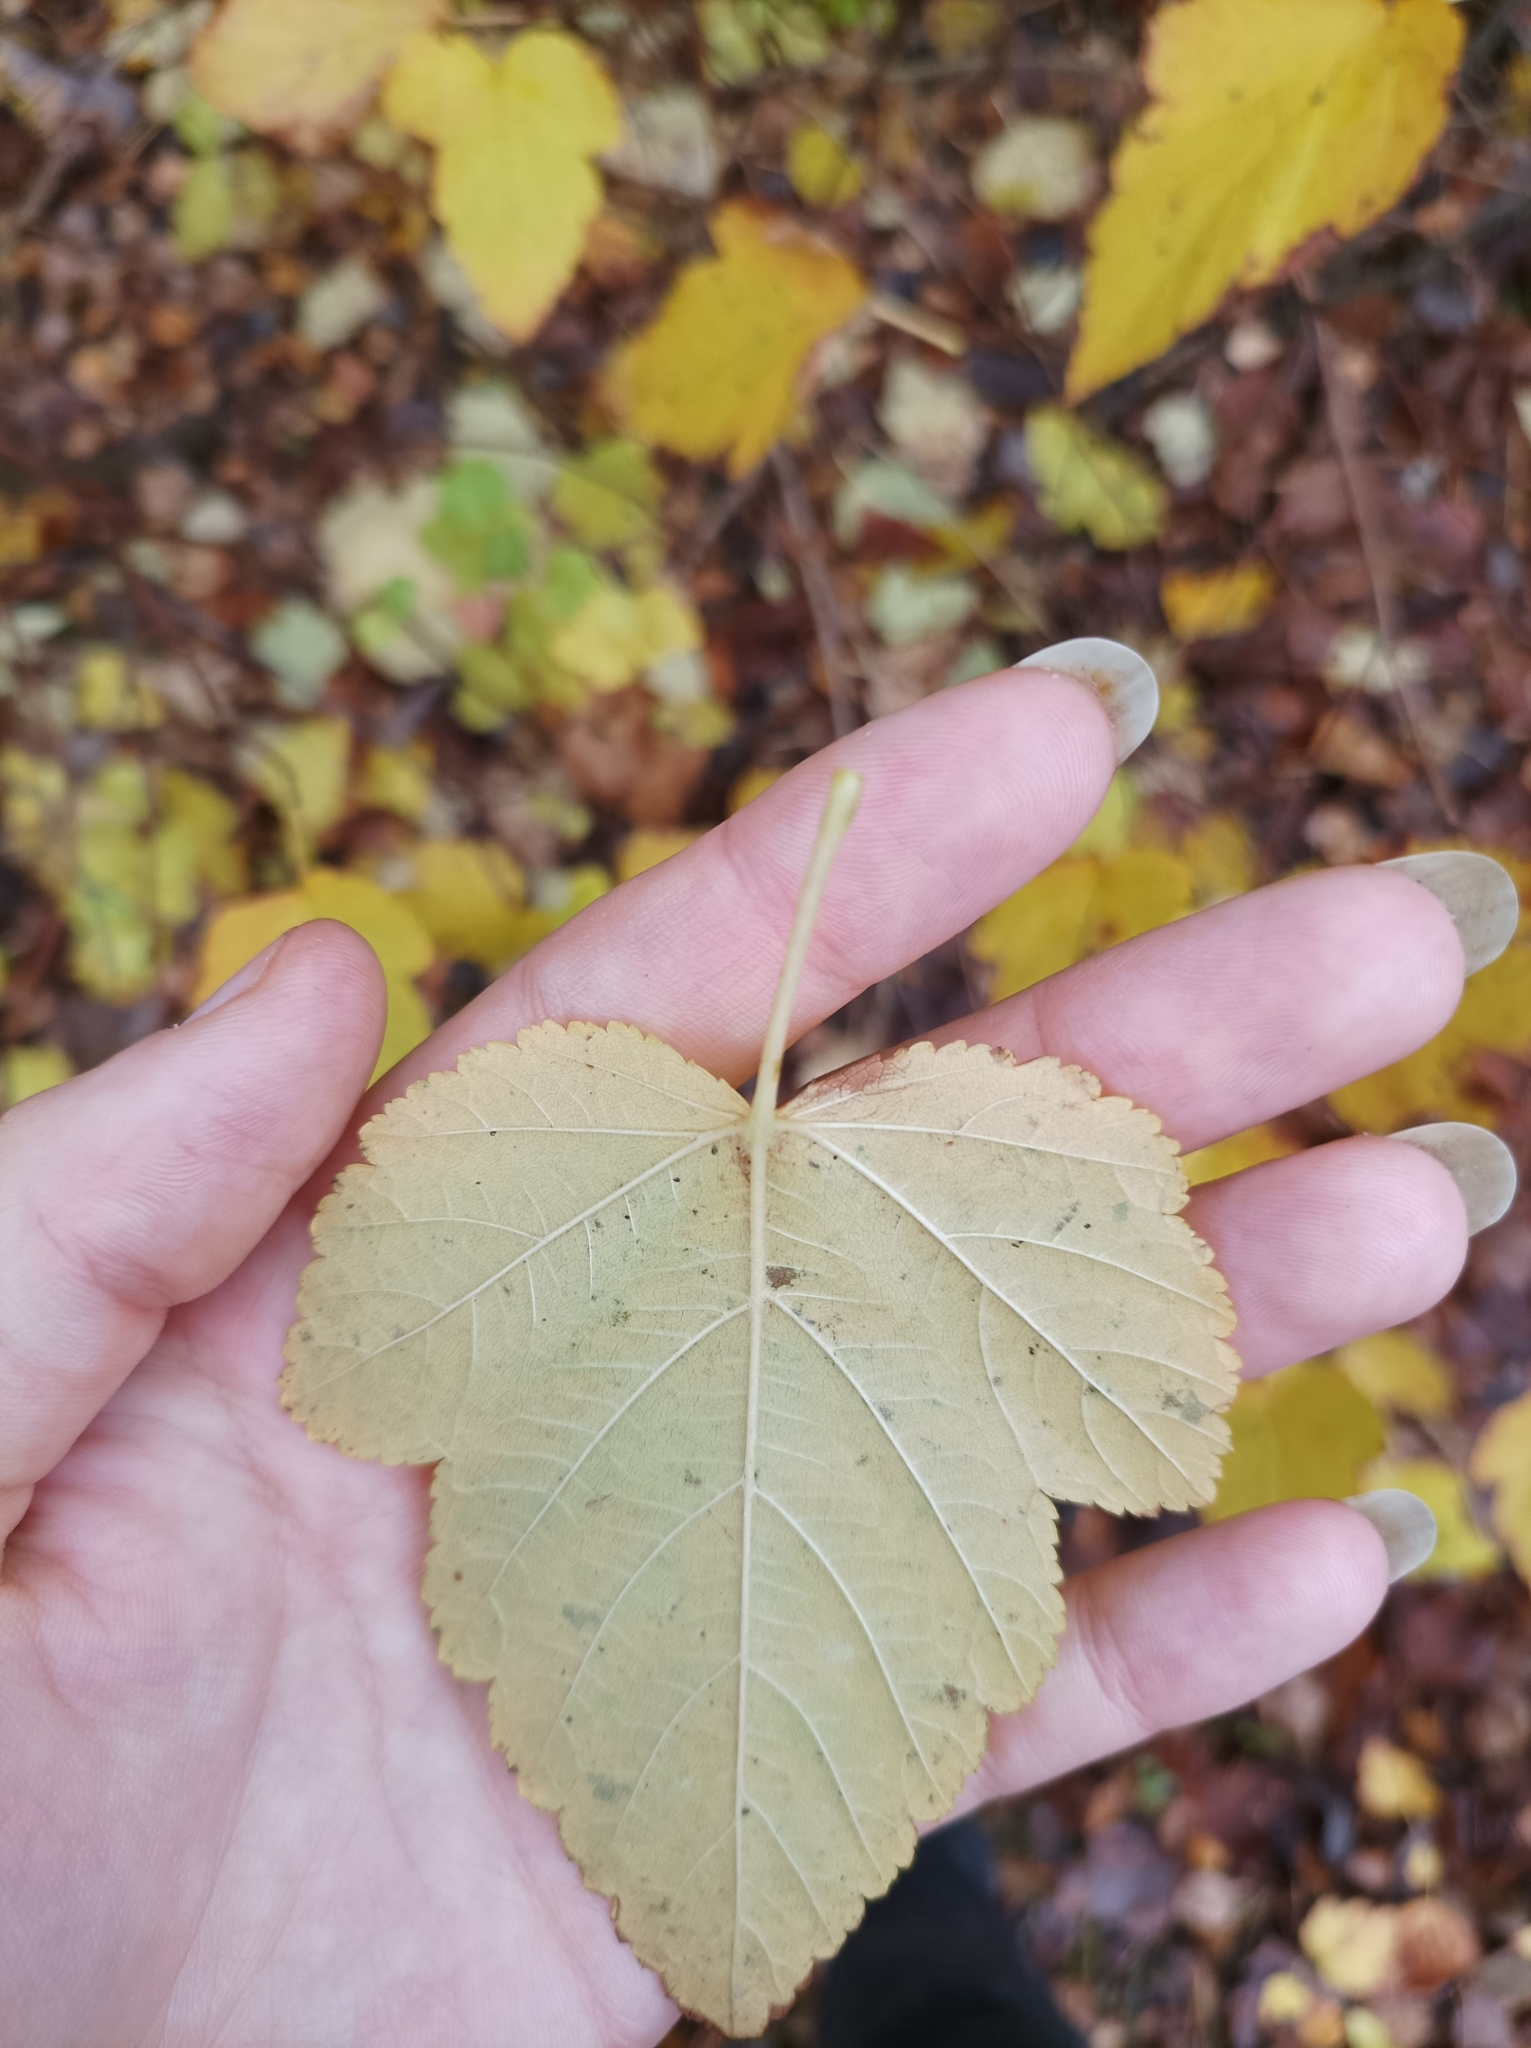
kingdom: Plantae
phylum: Tracheophyta
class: Magnoliopsida
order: Rosales
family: Rosaceae
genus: Physocarpus
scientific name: Physocarpus opulifolius
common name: Ninebark
